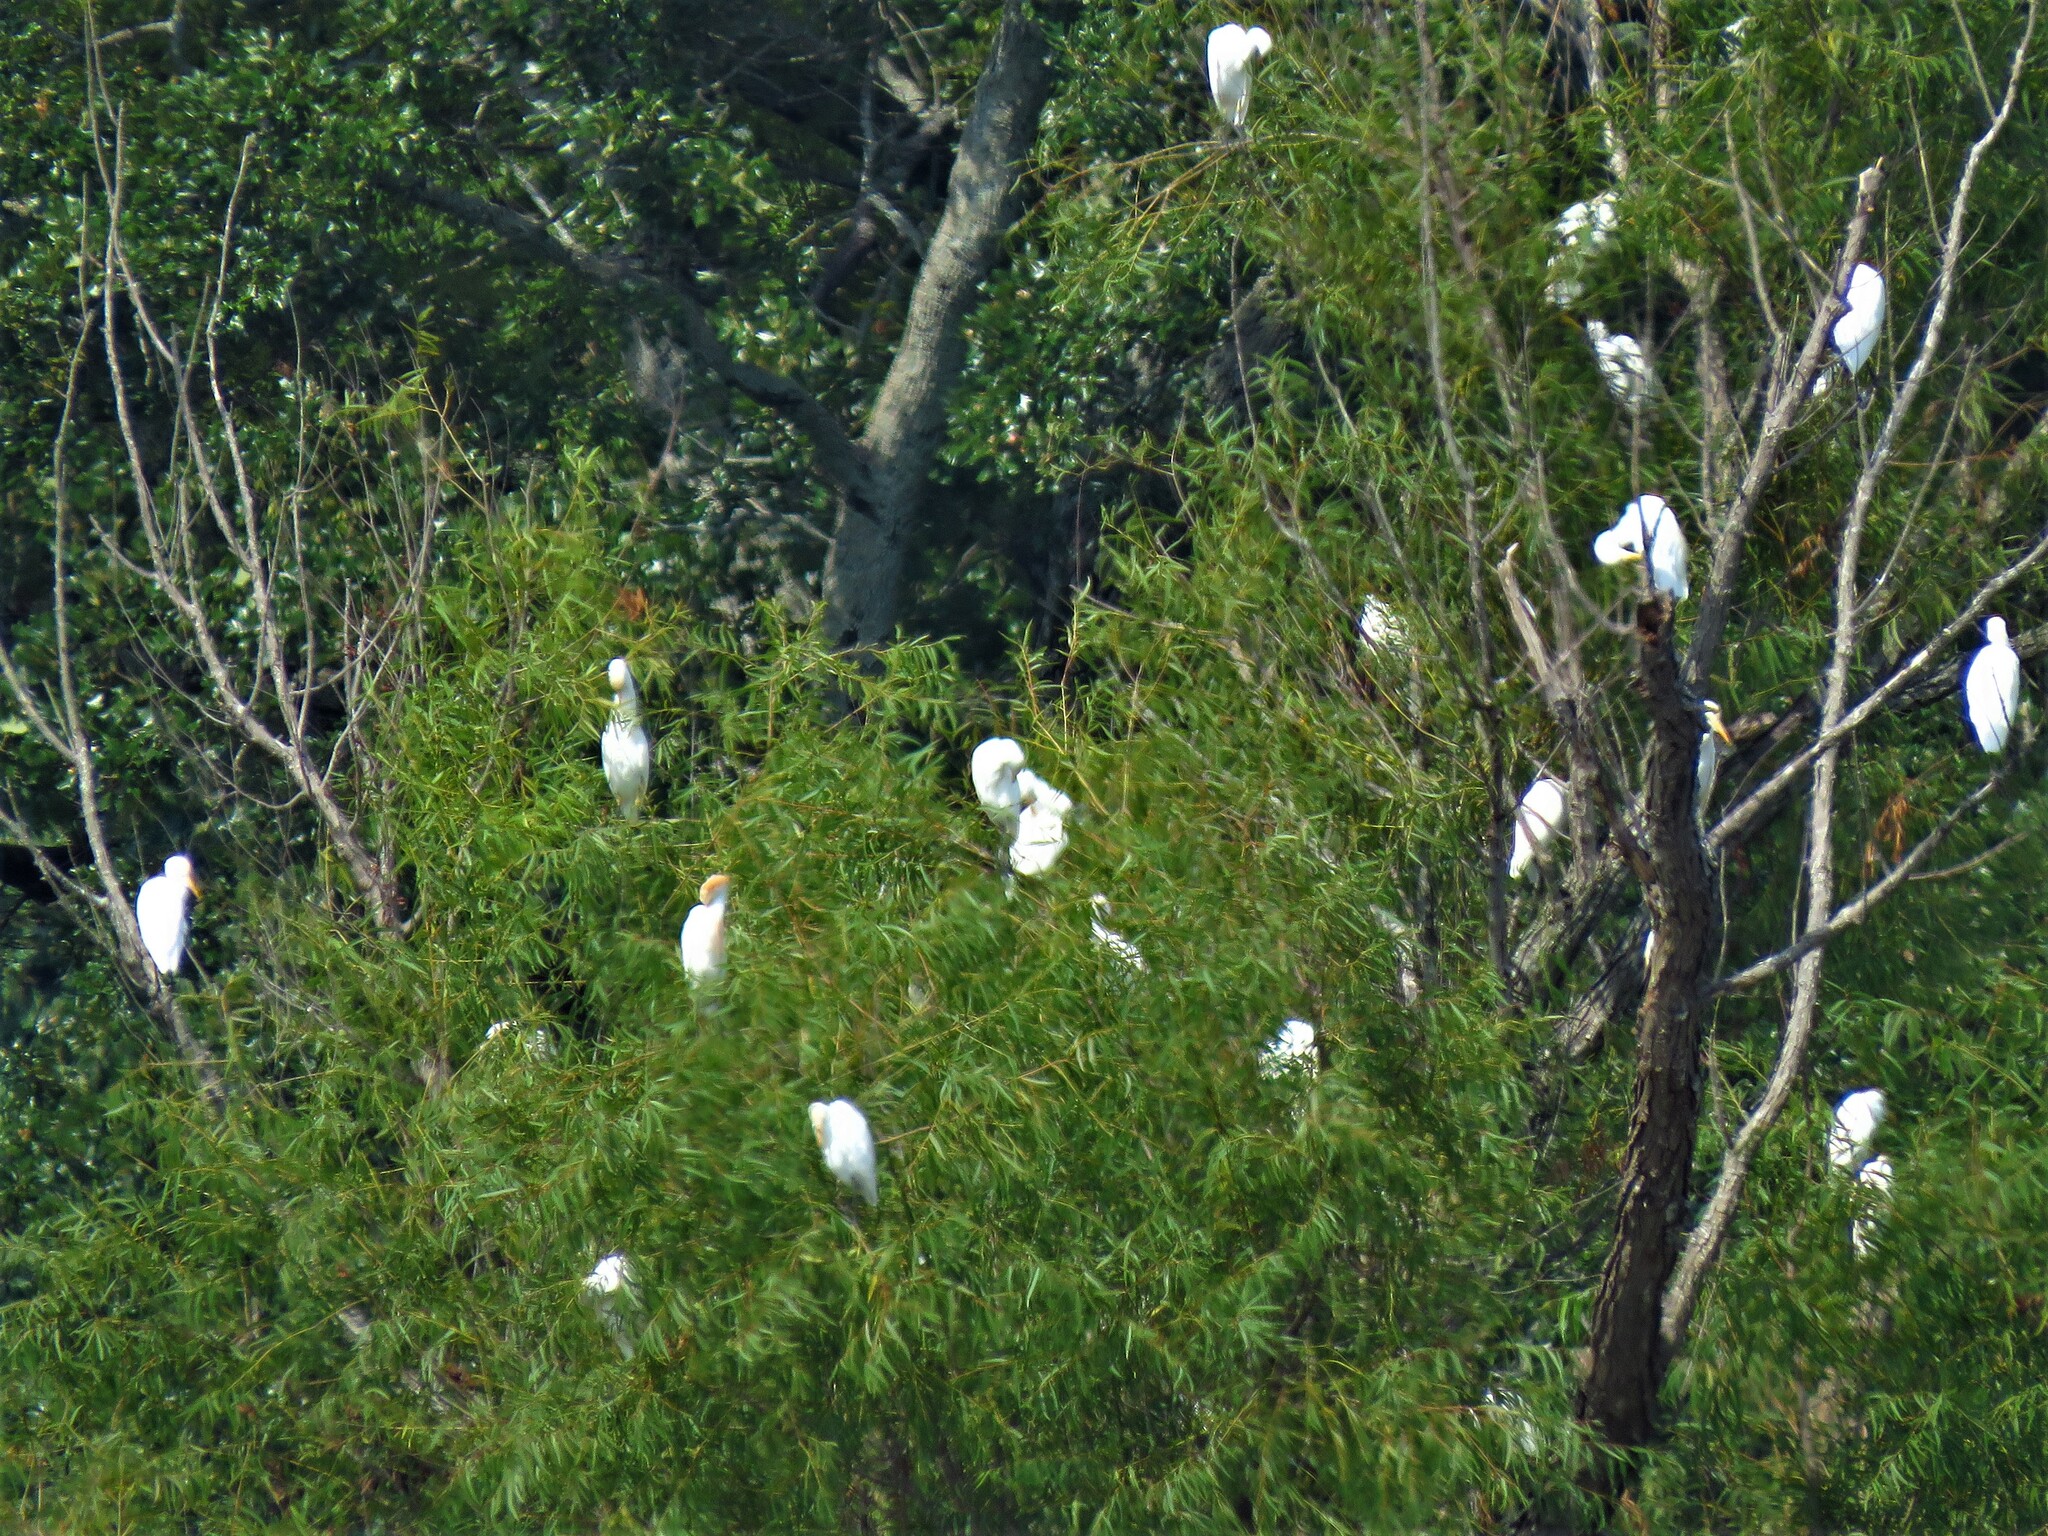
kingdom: Animalia
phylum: Chordata
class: Aves
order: Pelecaniformes
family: Ardeidae
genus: Bubulcus
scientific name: Bubulcus ibis
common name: Cattle egret
